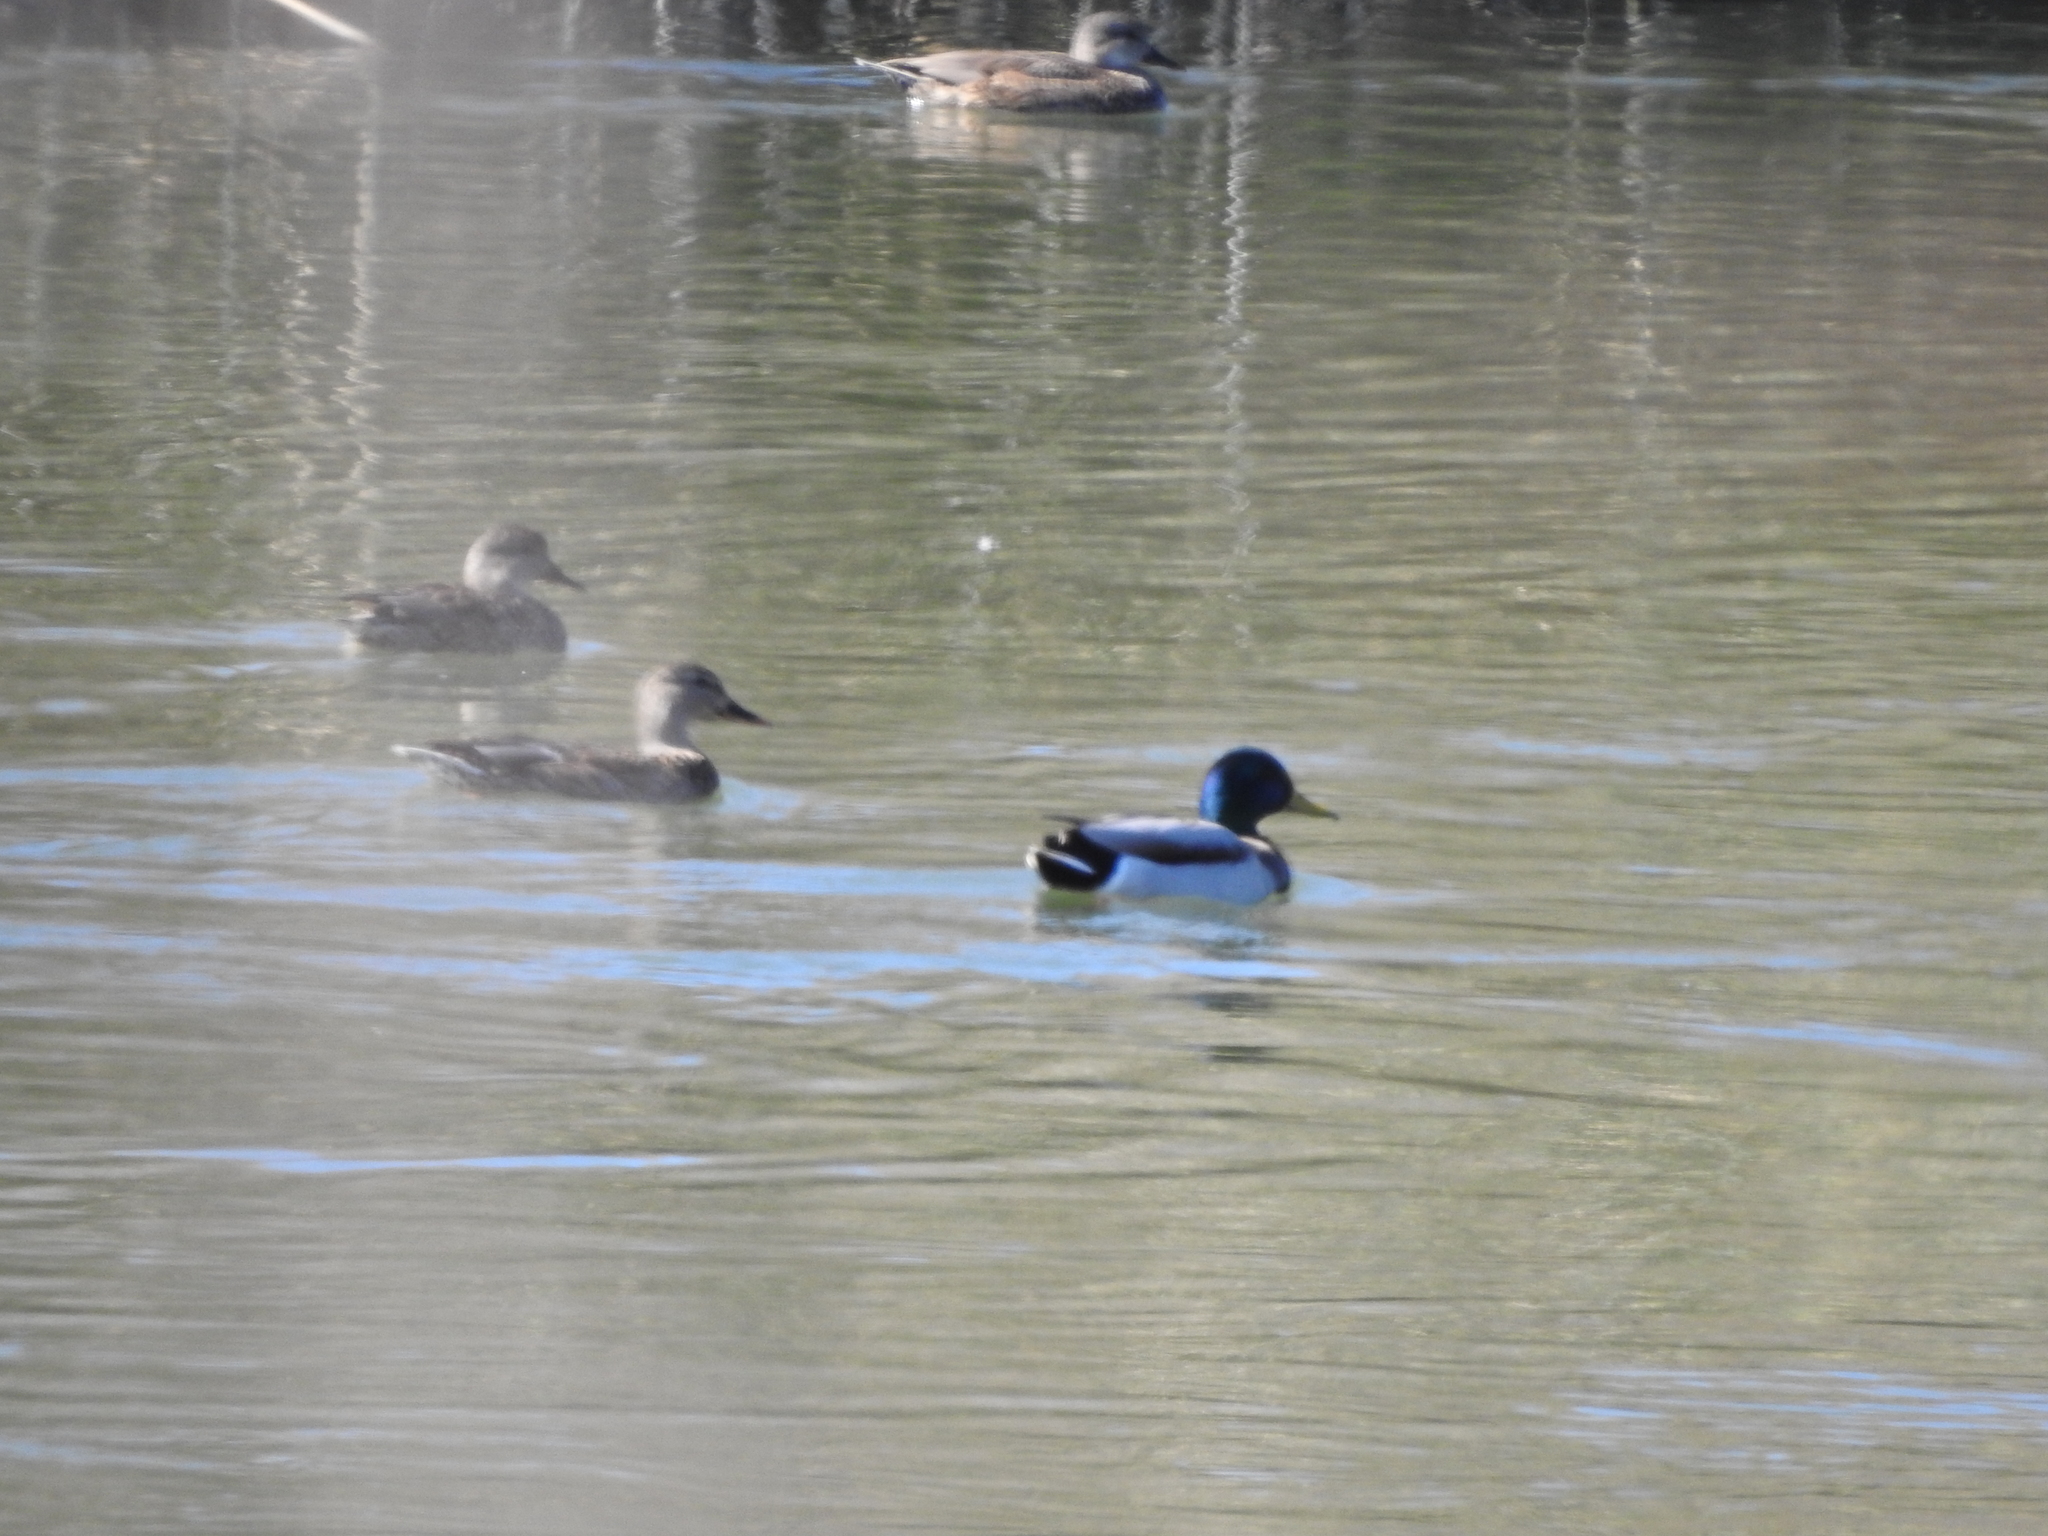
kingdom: Animalia
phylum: Chordata
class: Aves
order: Anseriformes
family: Anatidae
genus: Anas
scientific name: Anas platyrhynchos
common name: Mallard
